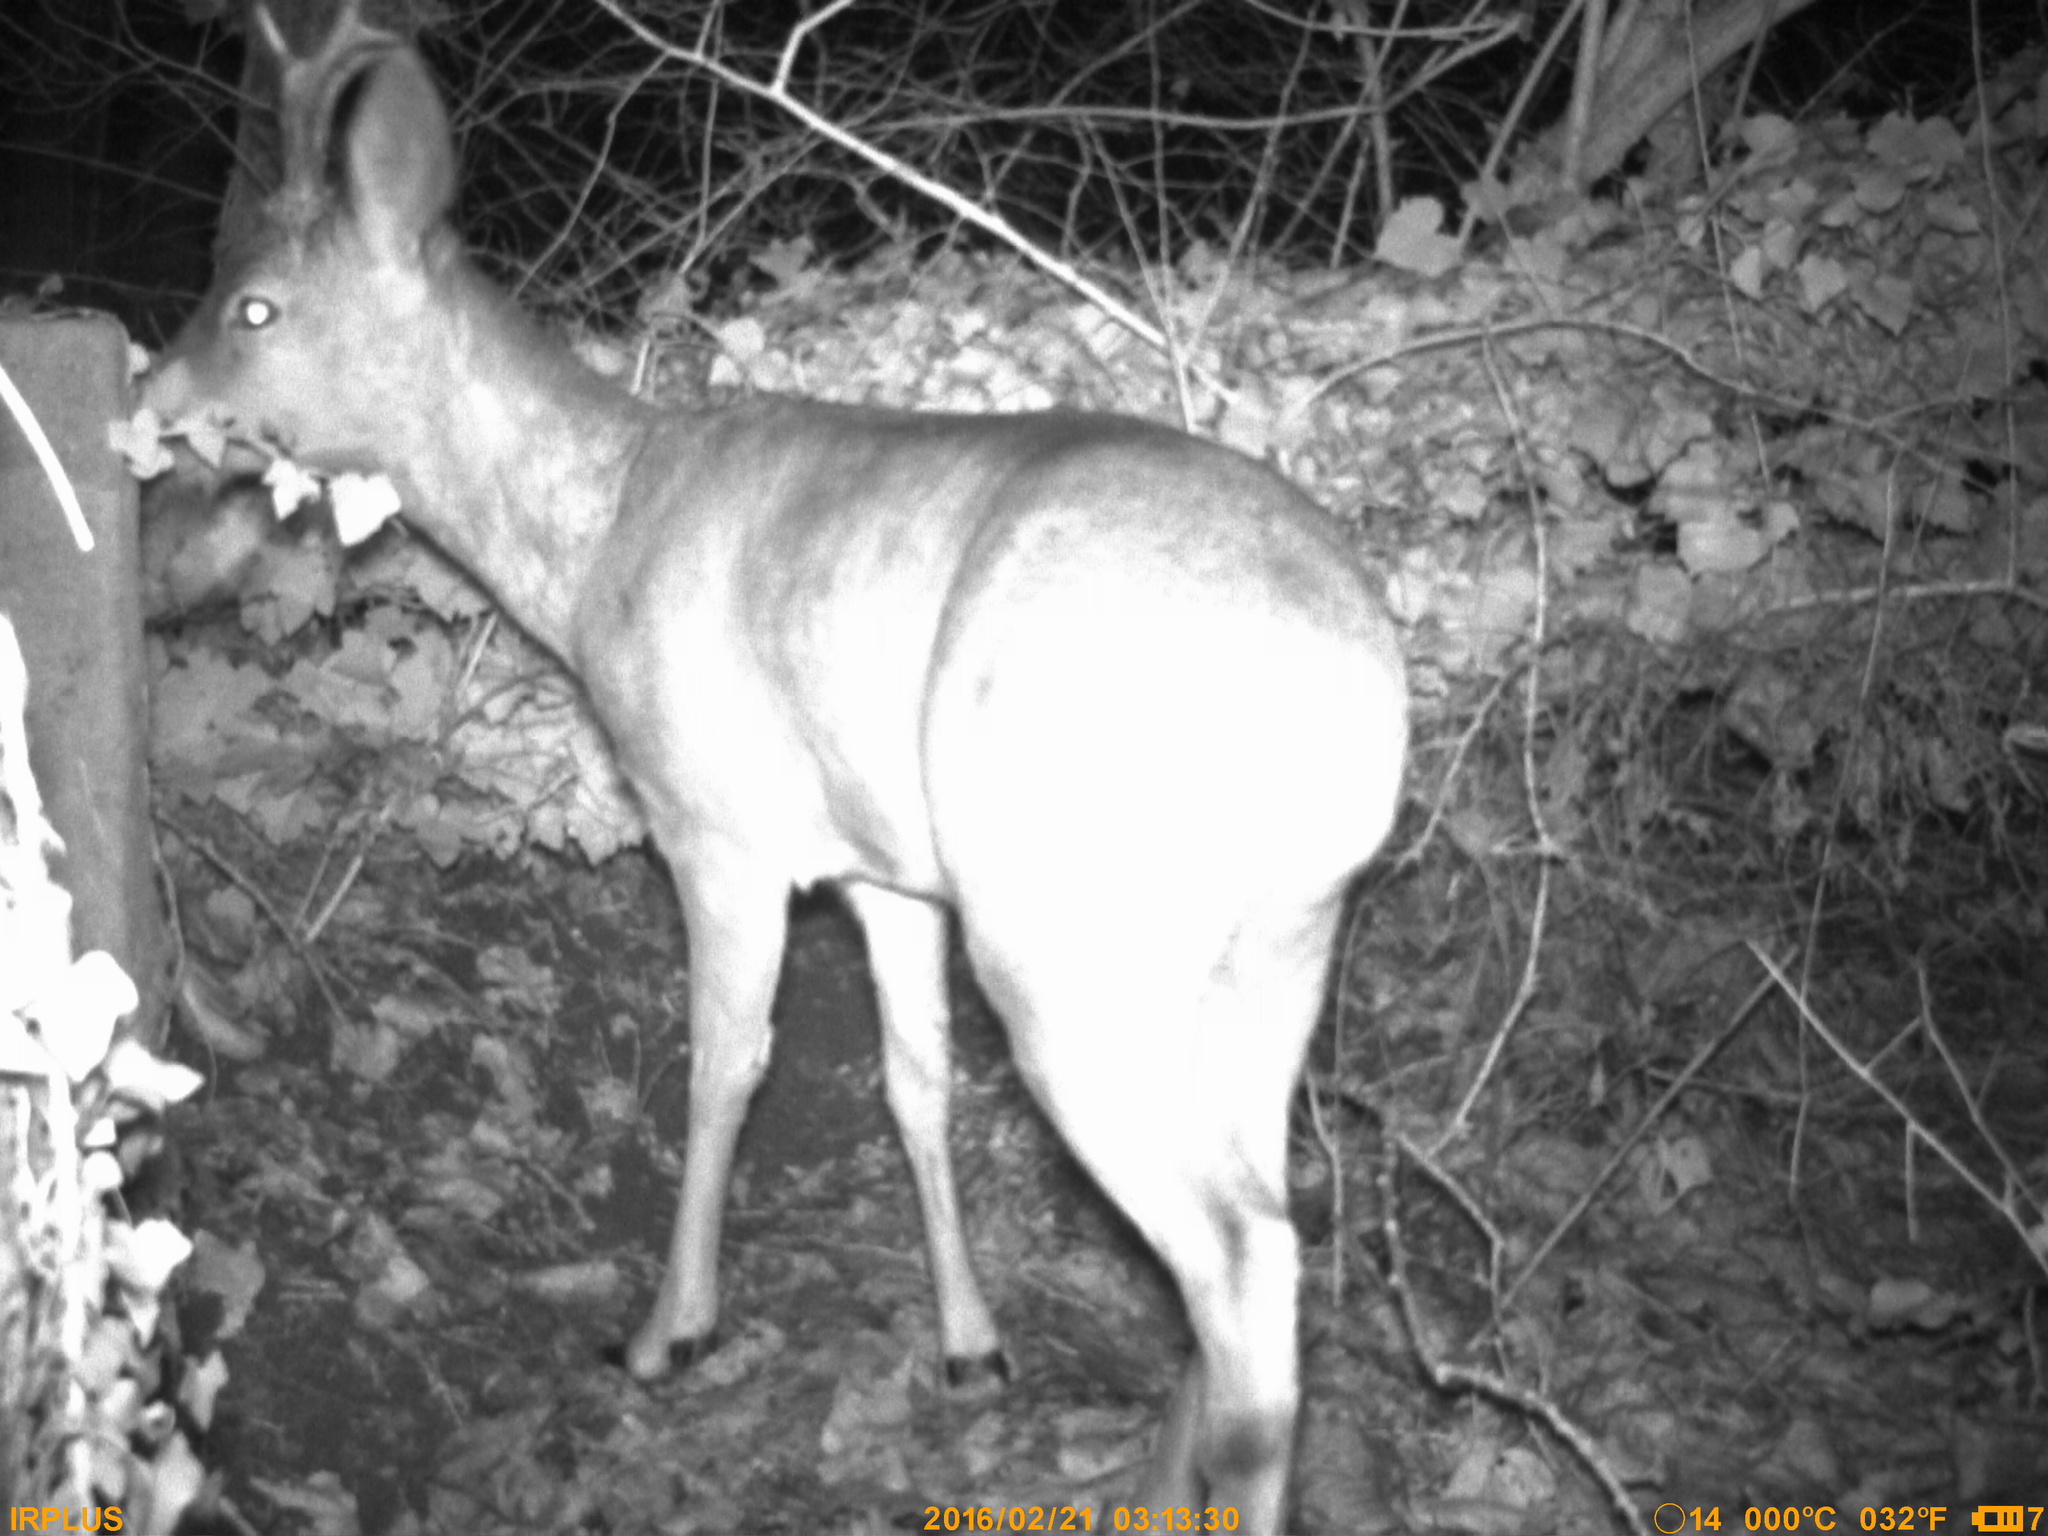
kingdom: Animalia
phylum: Chordata
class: Mammalia
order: Artiodactyla
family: Cervidae
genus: Capreolus
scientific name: Capreolus capreolus
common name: Western roe deer
